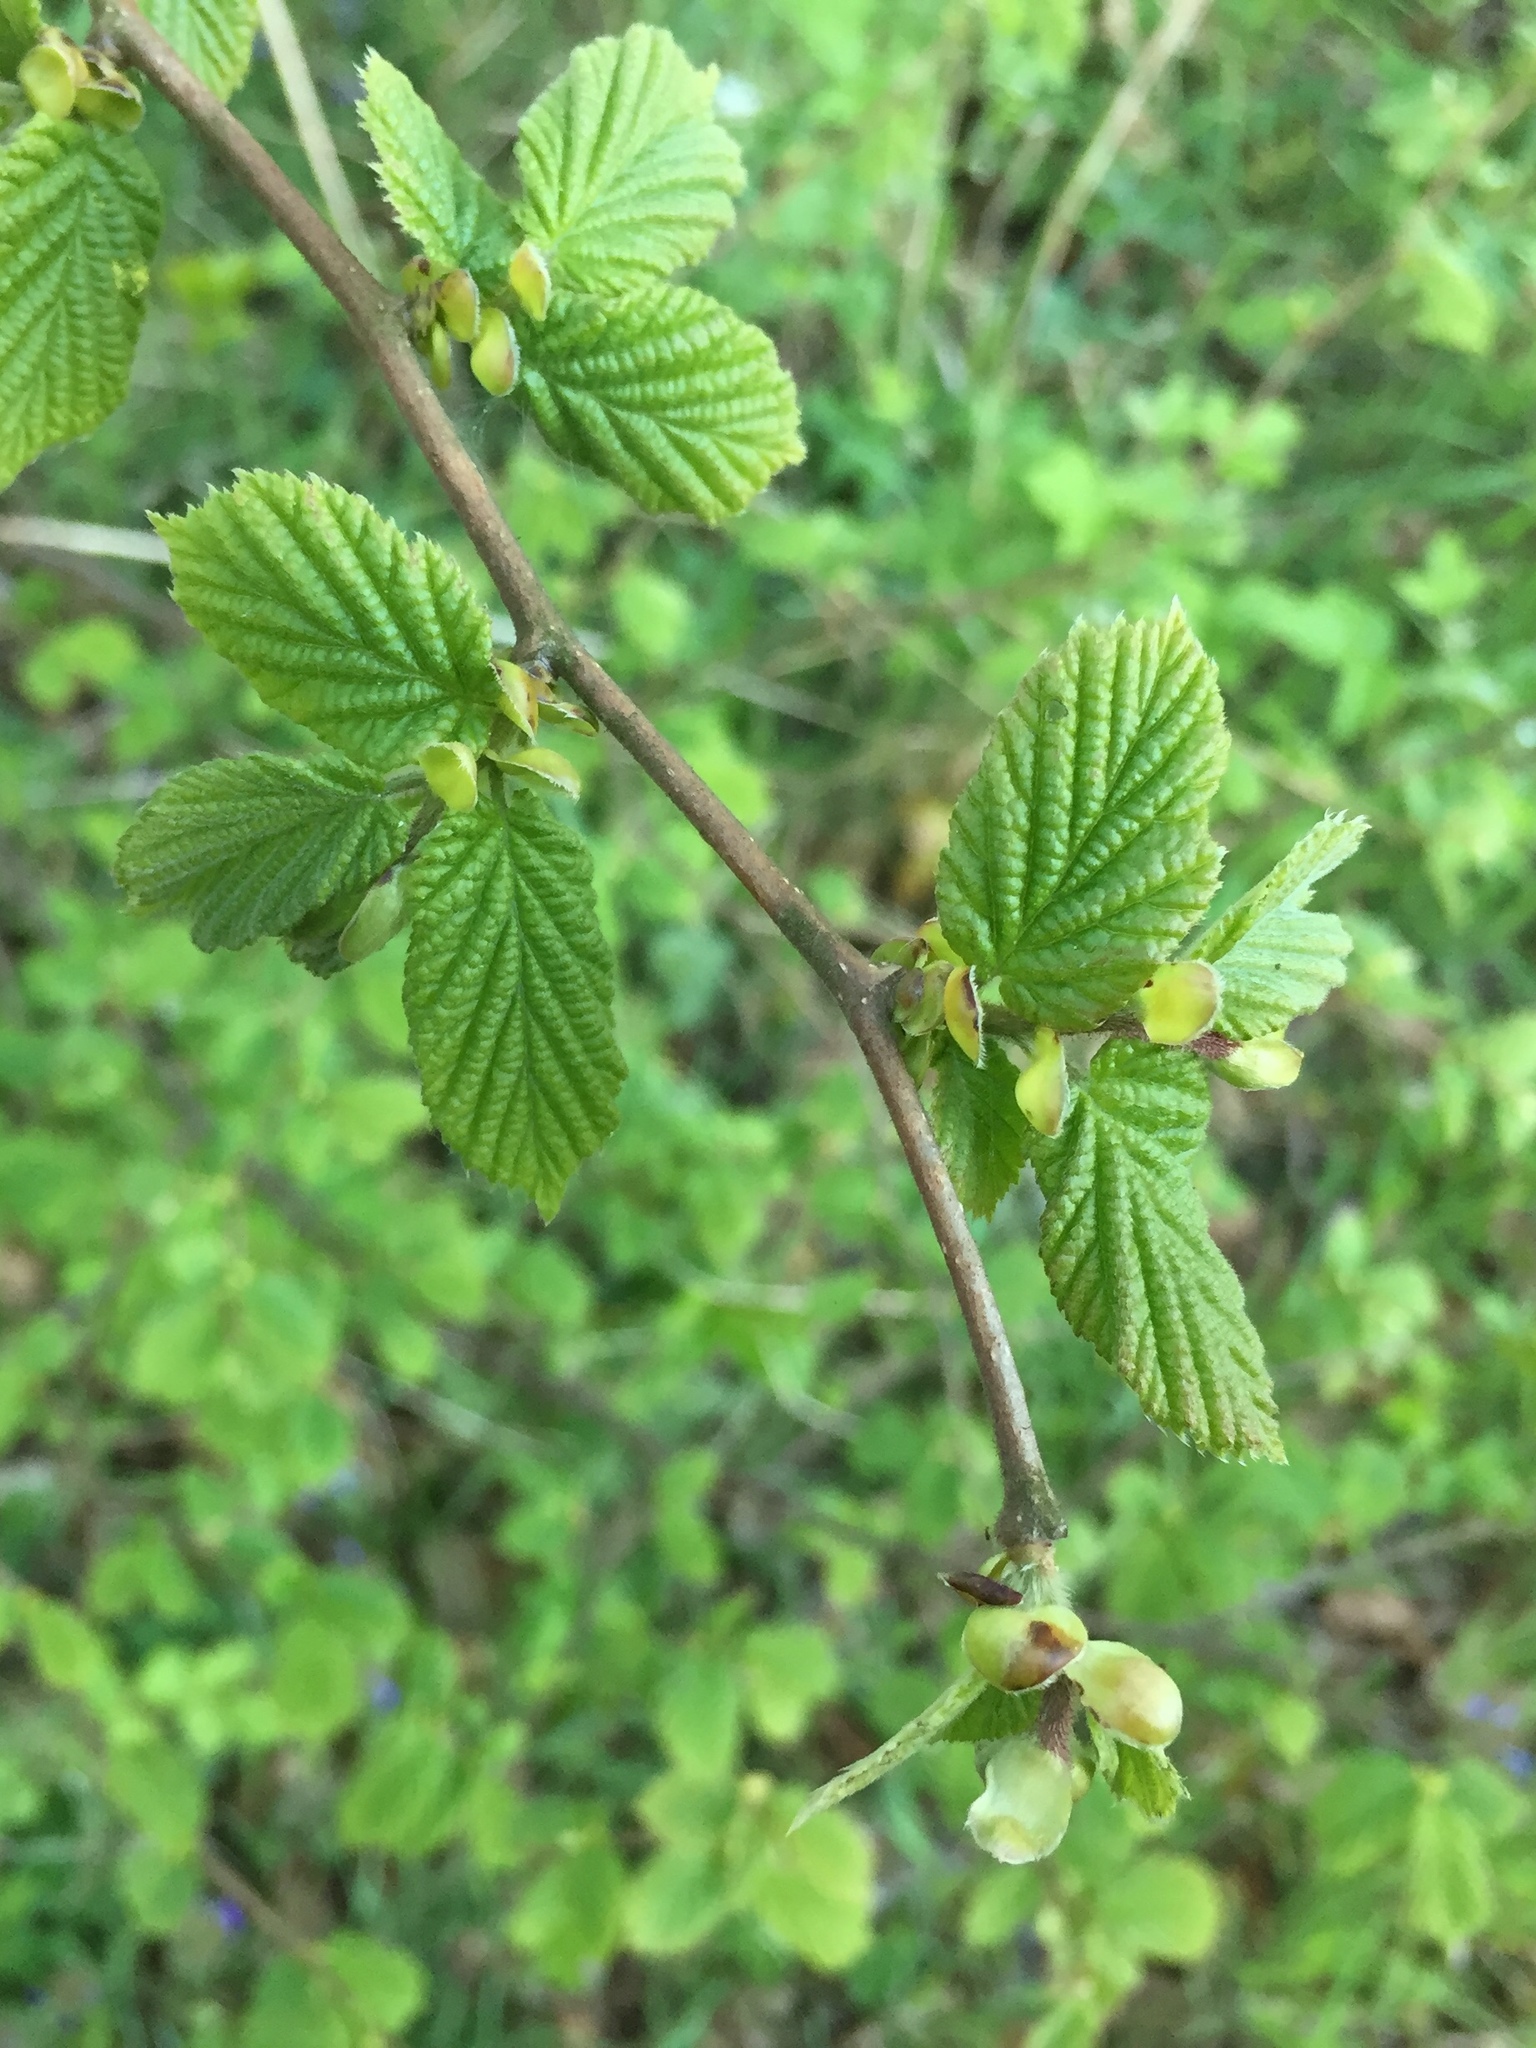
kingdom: Plantae
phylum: Tracheophyta
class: Magnoliopsida
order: Fagales
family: Betulaceae
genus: Corylus
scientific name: Corylus avellana
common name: European hazel
